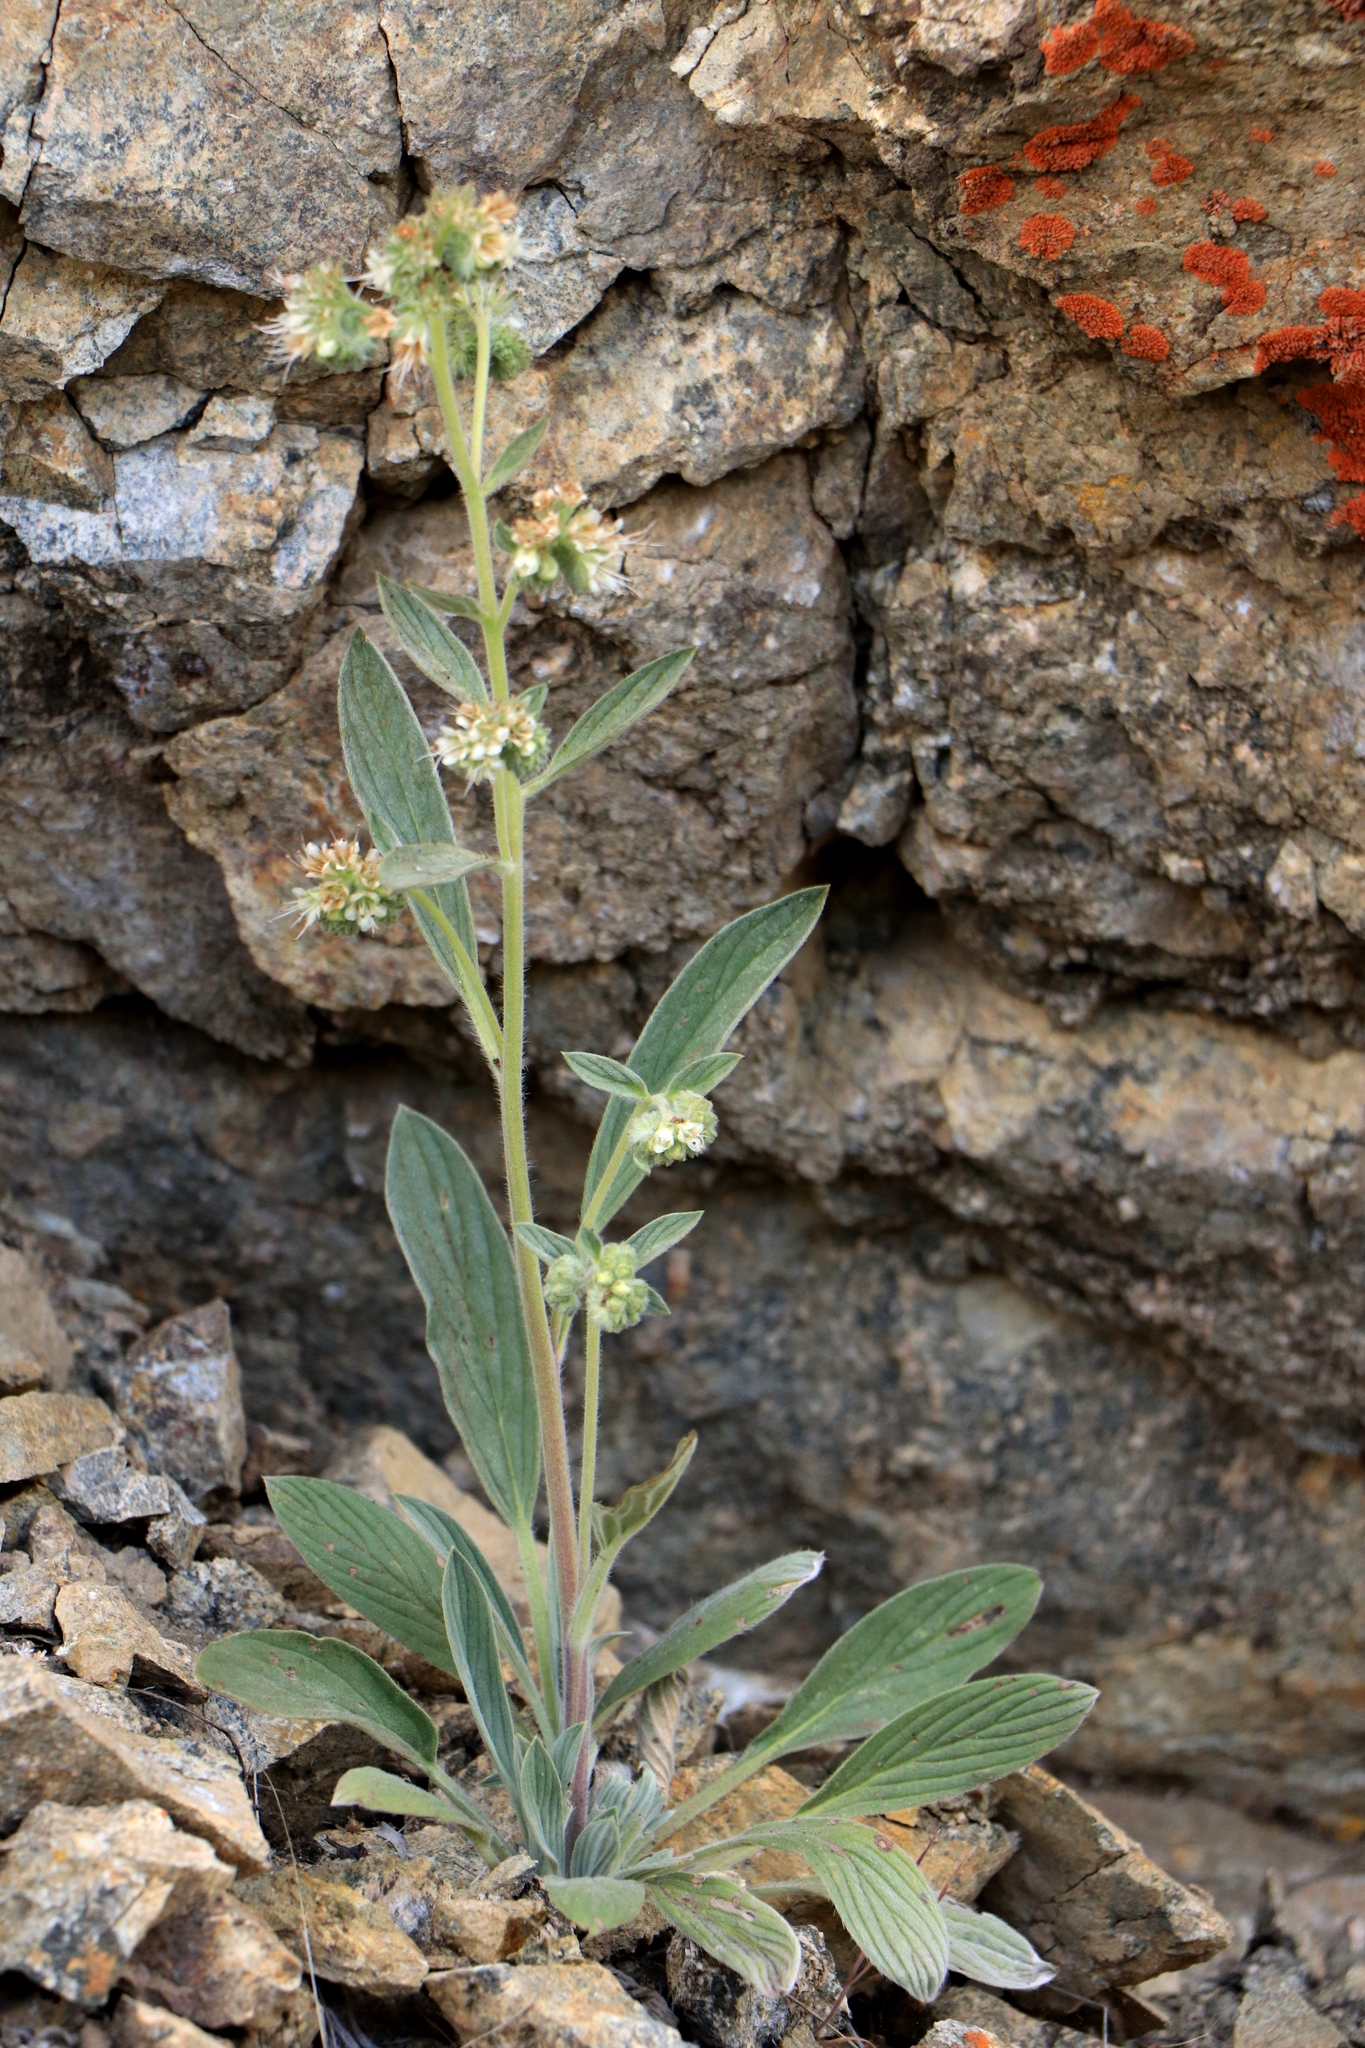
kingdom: Plantae
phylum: Tracheophyta
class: Magnoliopsida
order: Boraginales
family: Hydrophyllaceae
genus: Phacelia
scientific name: Phacelia hastata
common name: Silver-leaved phacelia
